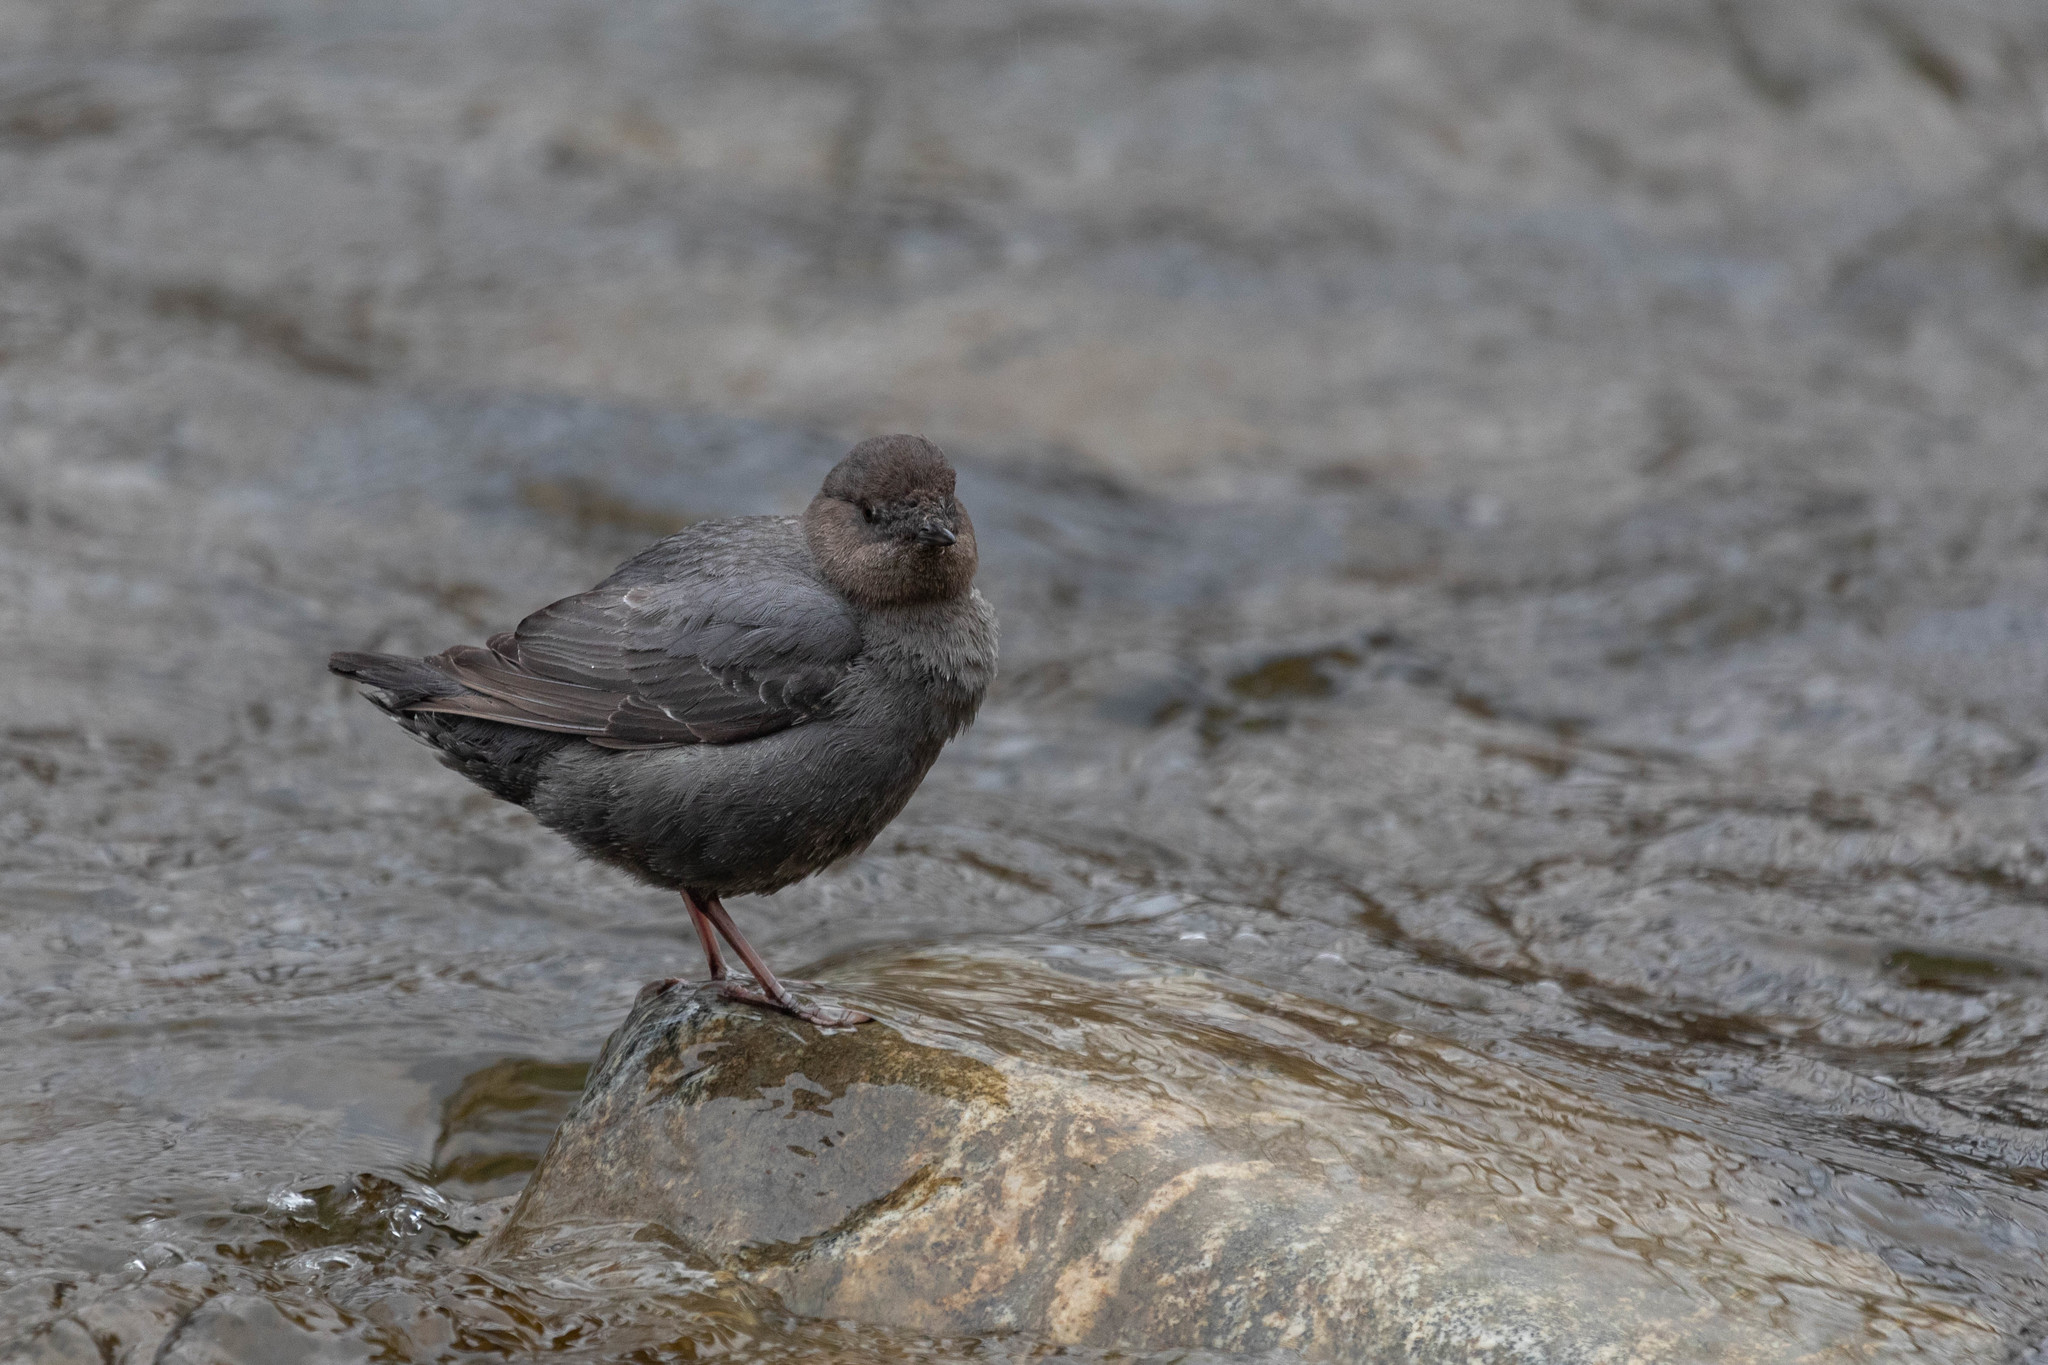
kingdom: Animalia
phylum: Chordata
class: Aves
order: Passeriformes
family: Cinclidae
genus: Cinclus
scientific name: Cinclus mexicanus
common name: American dipper
